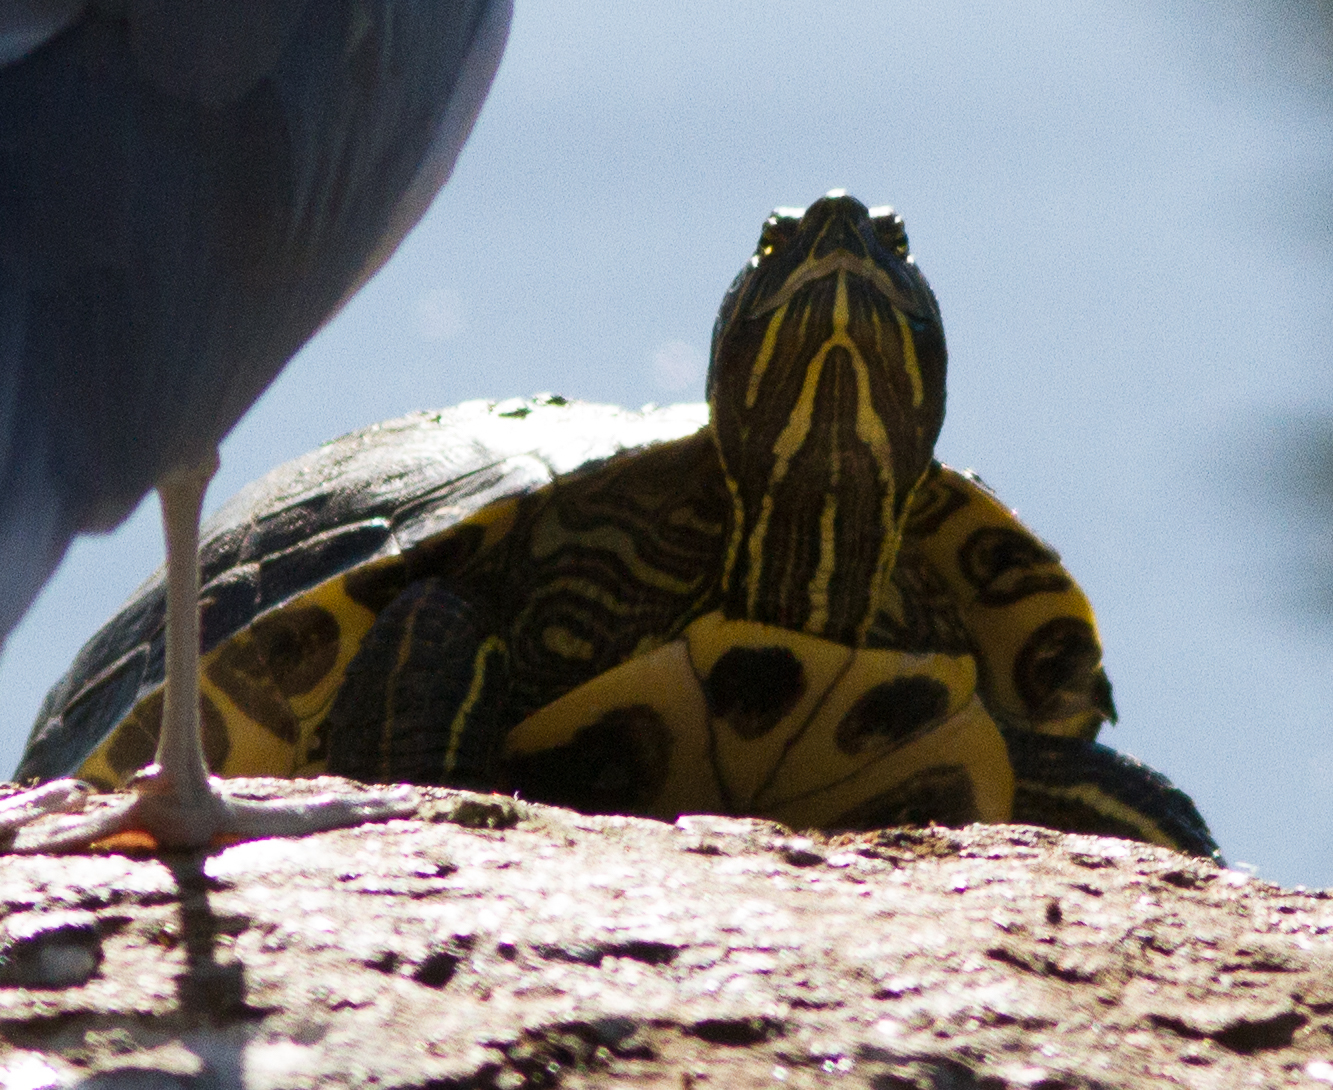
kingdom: Animalia
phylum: Chordata
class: Testudines
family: Emydidae
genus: Trachemys
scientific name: Trachemys scripta
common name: Slider
